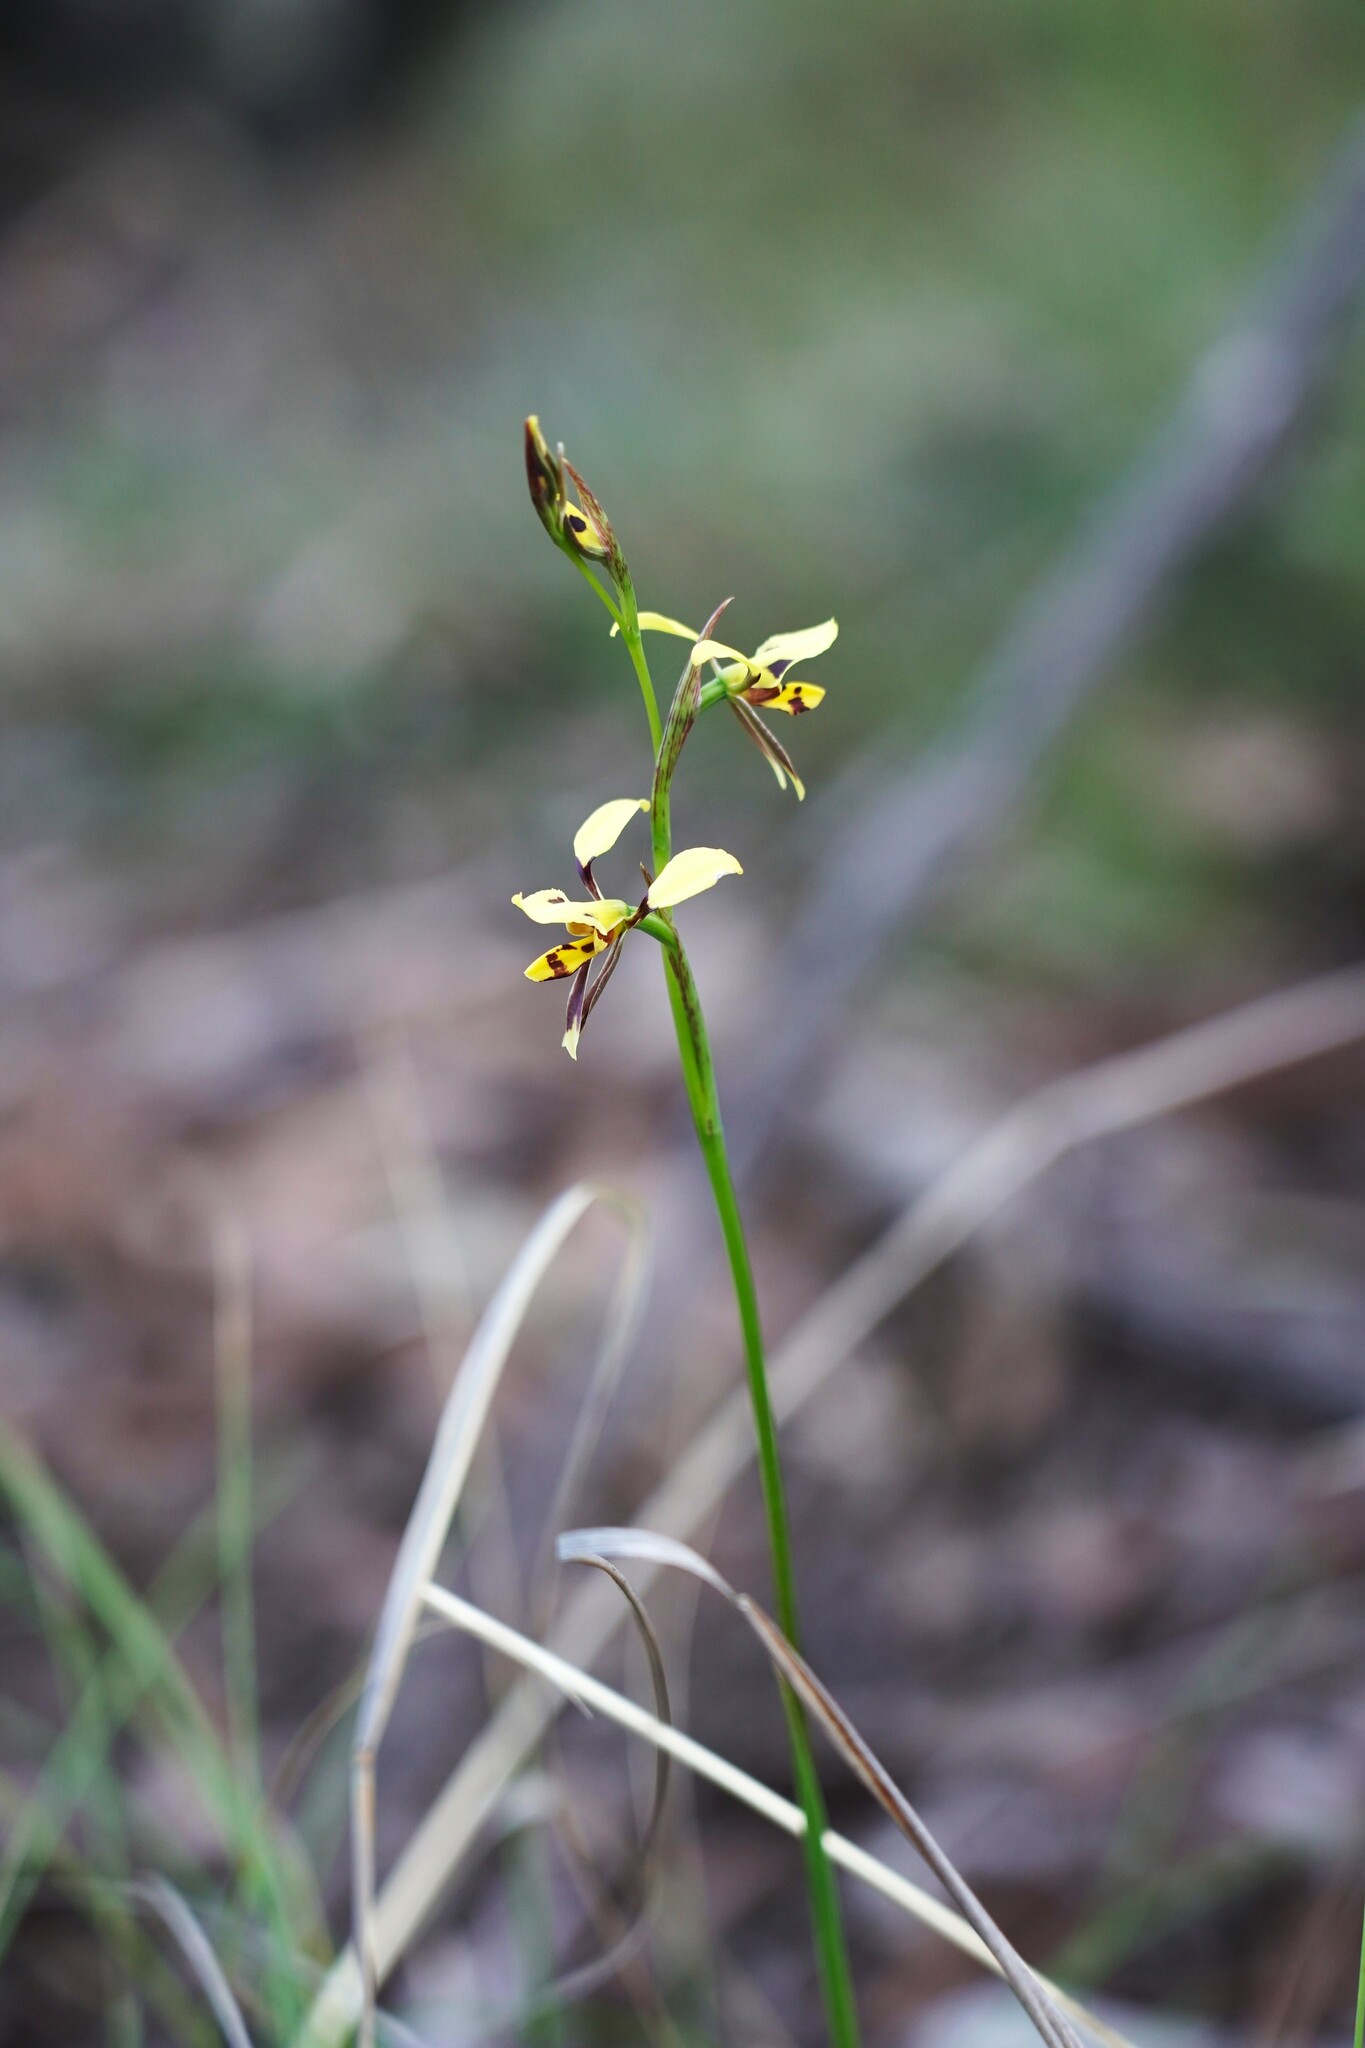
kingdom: Plantae
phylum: Tracheophyta
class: Liliopsida
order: Asparagales
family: Orchidaceae
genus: Diuris
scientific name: Diuris sulphurea
